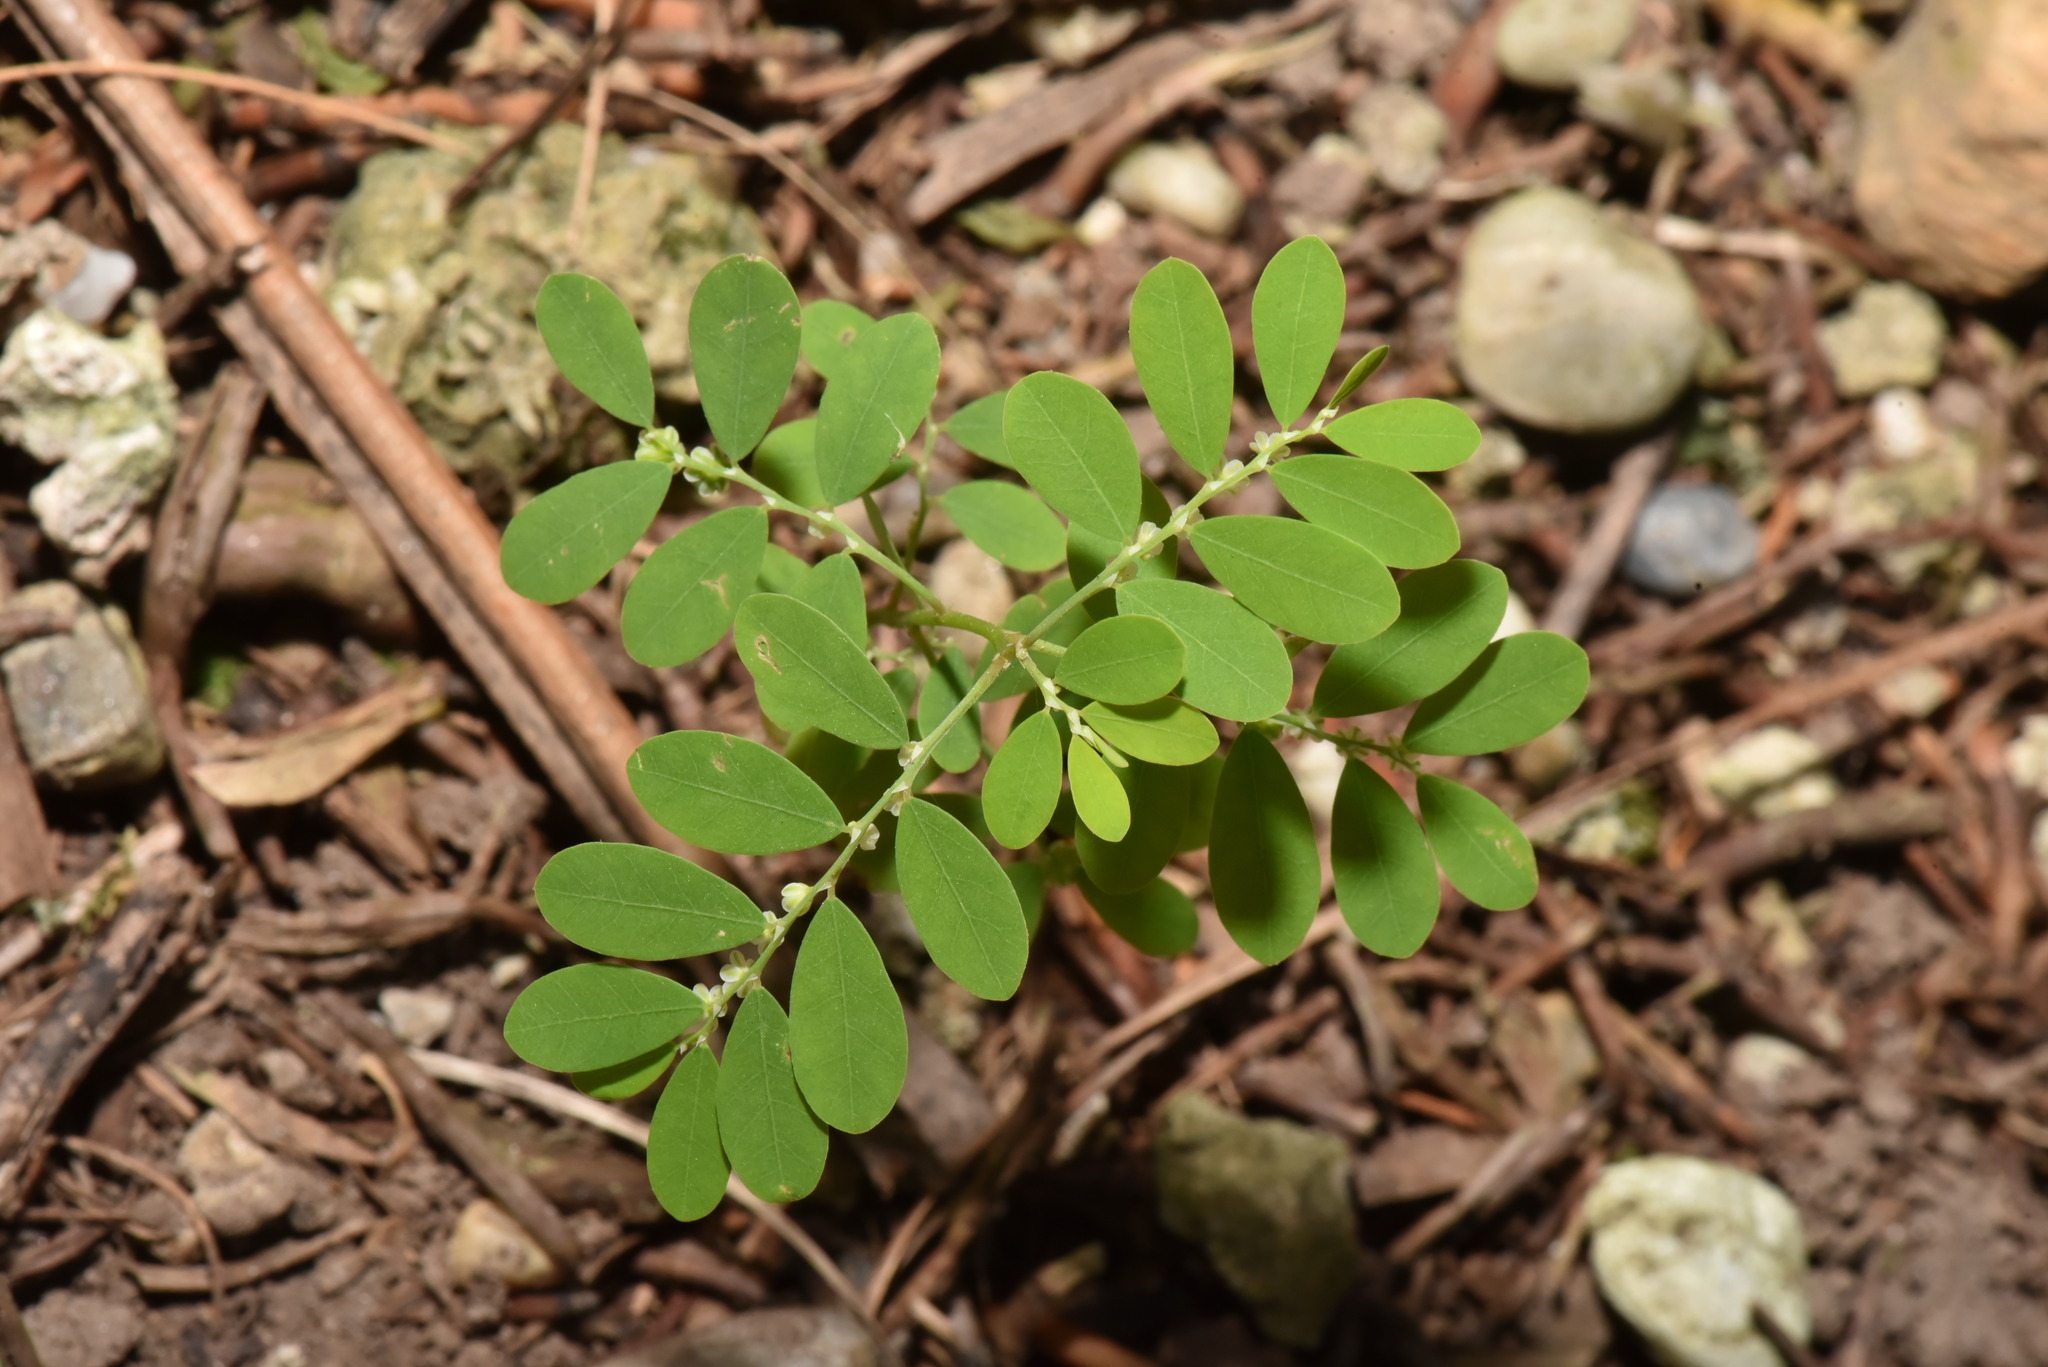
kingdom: Plantae
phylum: Tracheophyta
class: Magnoliopsida
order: Malpighiales
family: Phyllanthaceae
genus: Phyllanthus
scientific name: Phyllanthus tenellus
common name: Mascarene island leaf-flower
